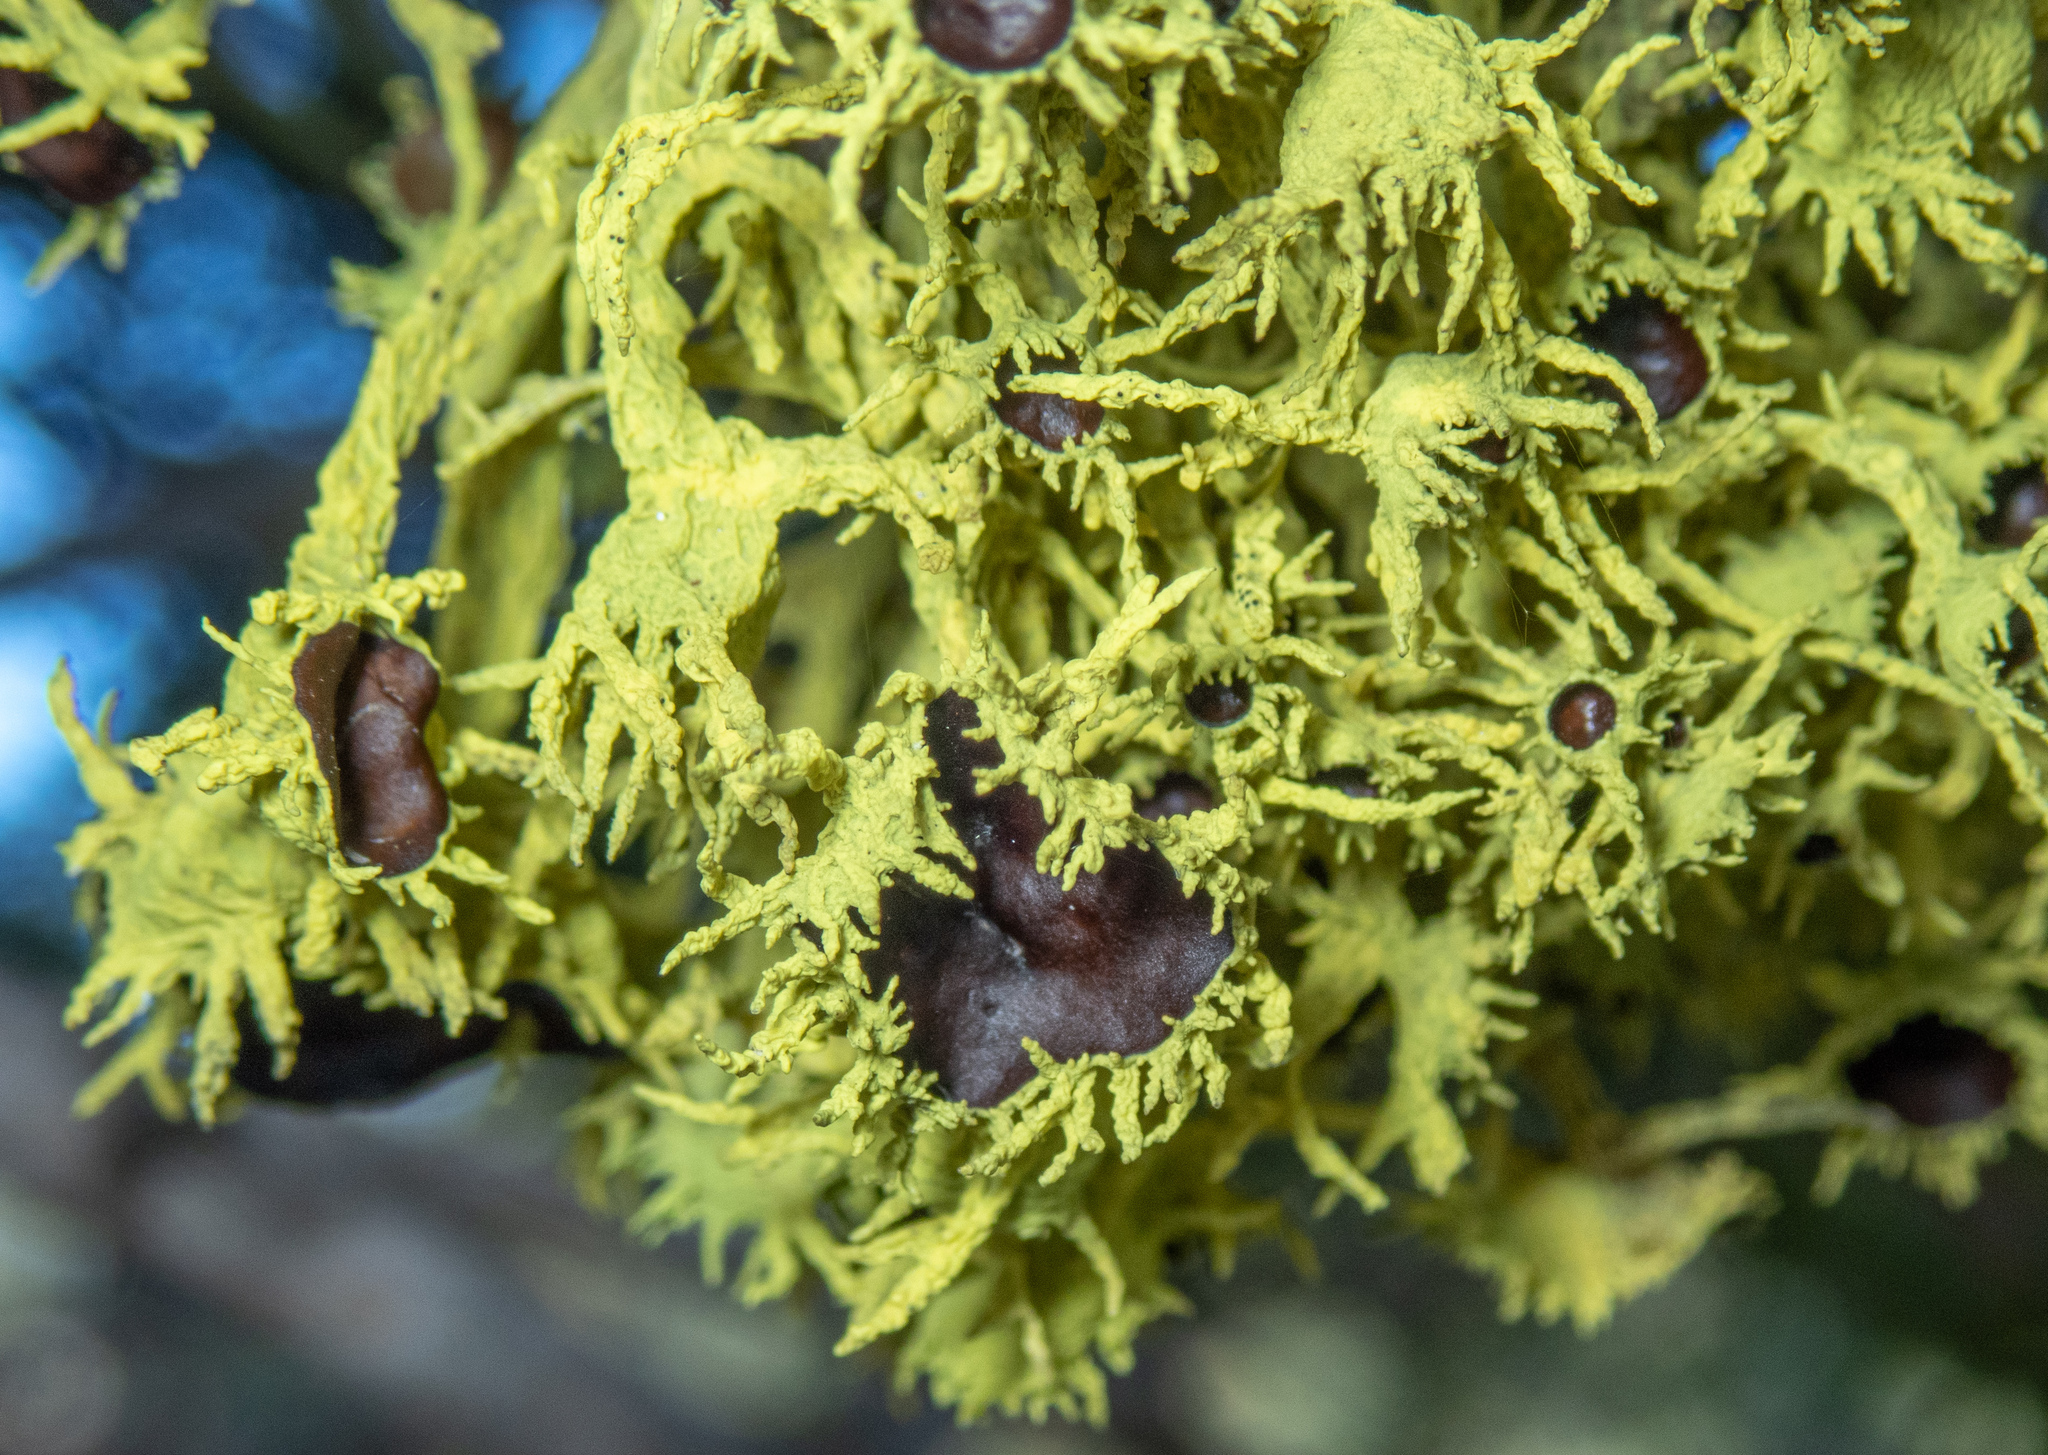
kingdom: Fungi
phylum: Ascomycota
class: Lecanoromycetes
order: Lecanorales
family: Parmeliaceae
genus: Letharia
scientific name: Letharia columbiana
